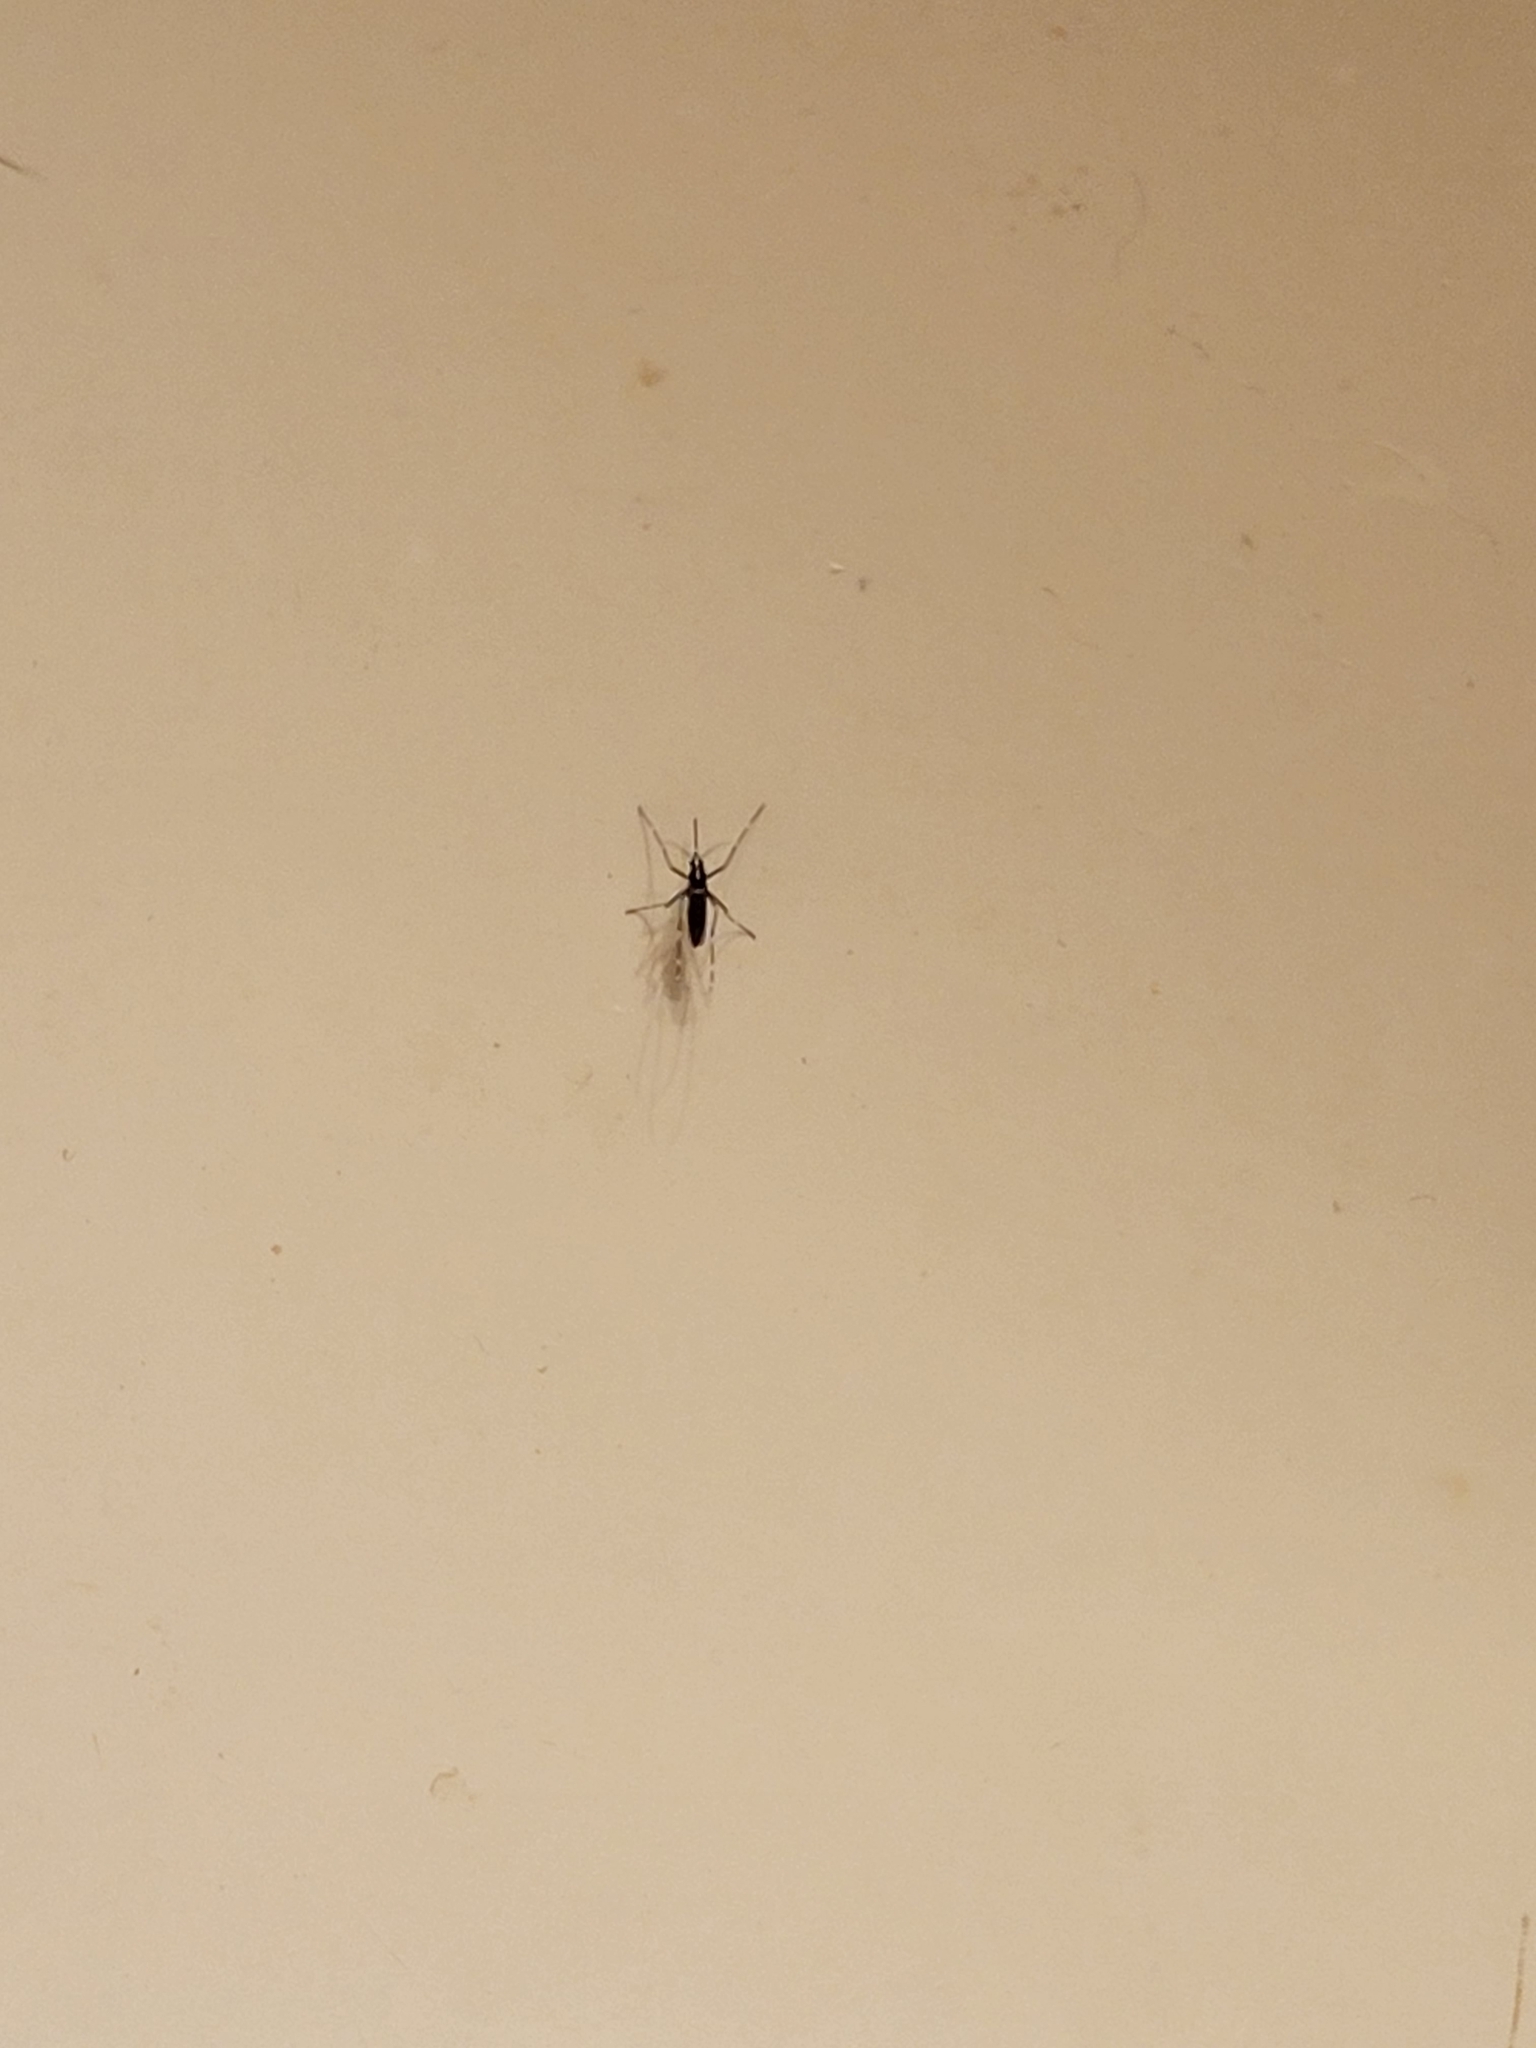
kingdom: Animalia
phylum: Arthropoda
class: Insecta
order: Diptera
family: Culicidae
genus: Aedes
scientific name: Aedes albopictus
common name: Tiger mosquito
